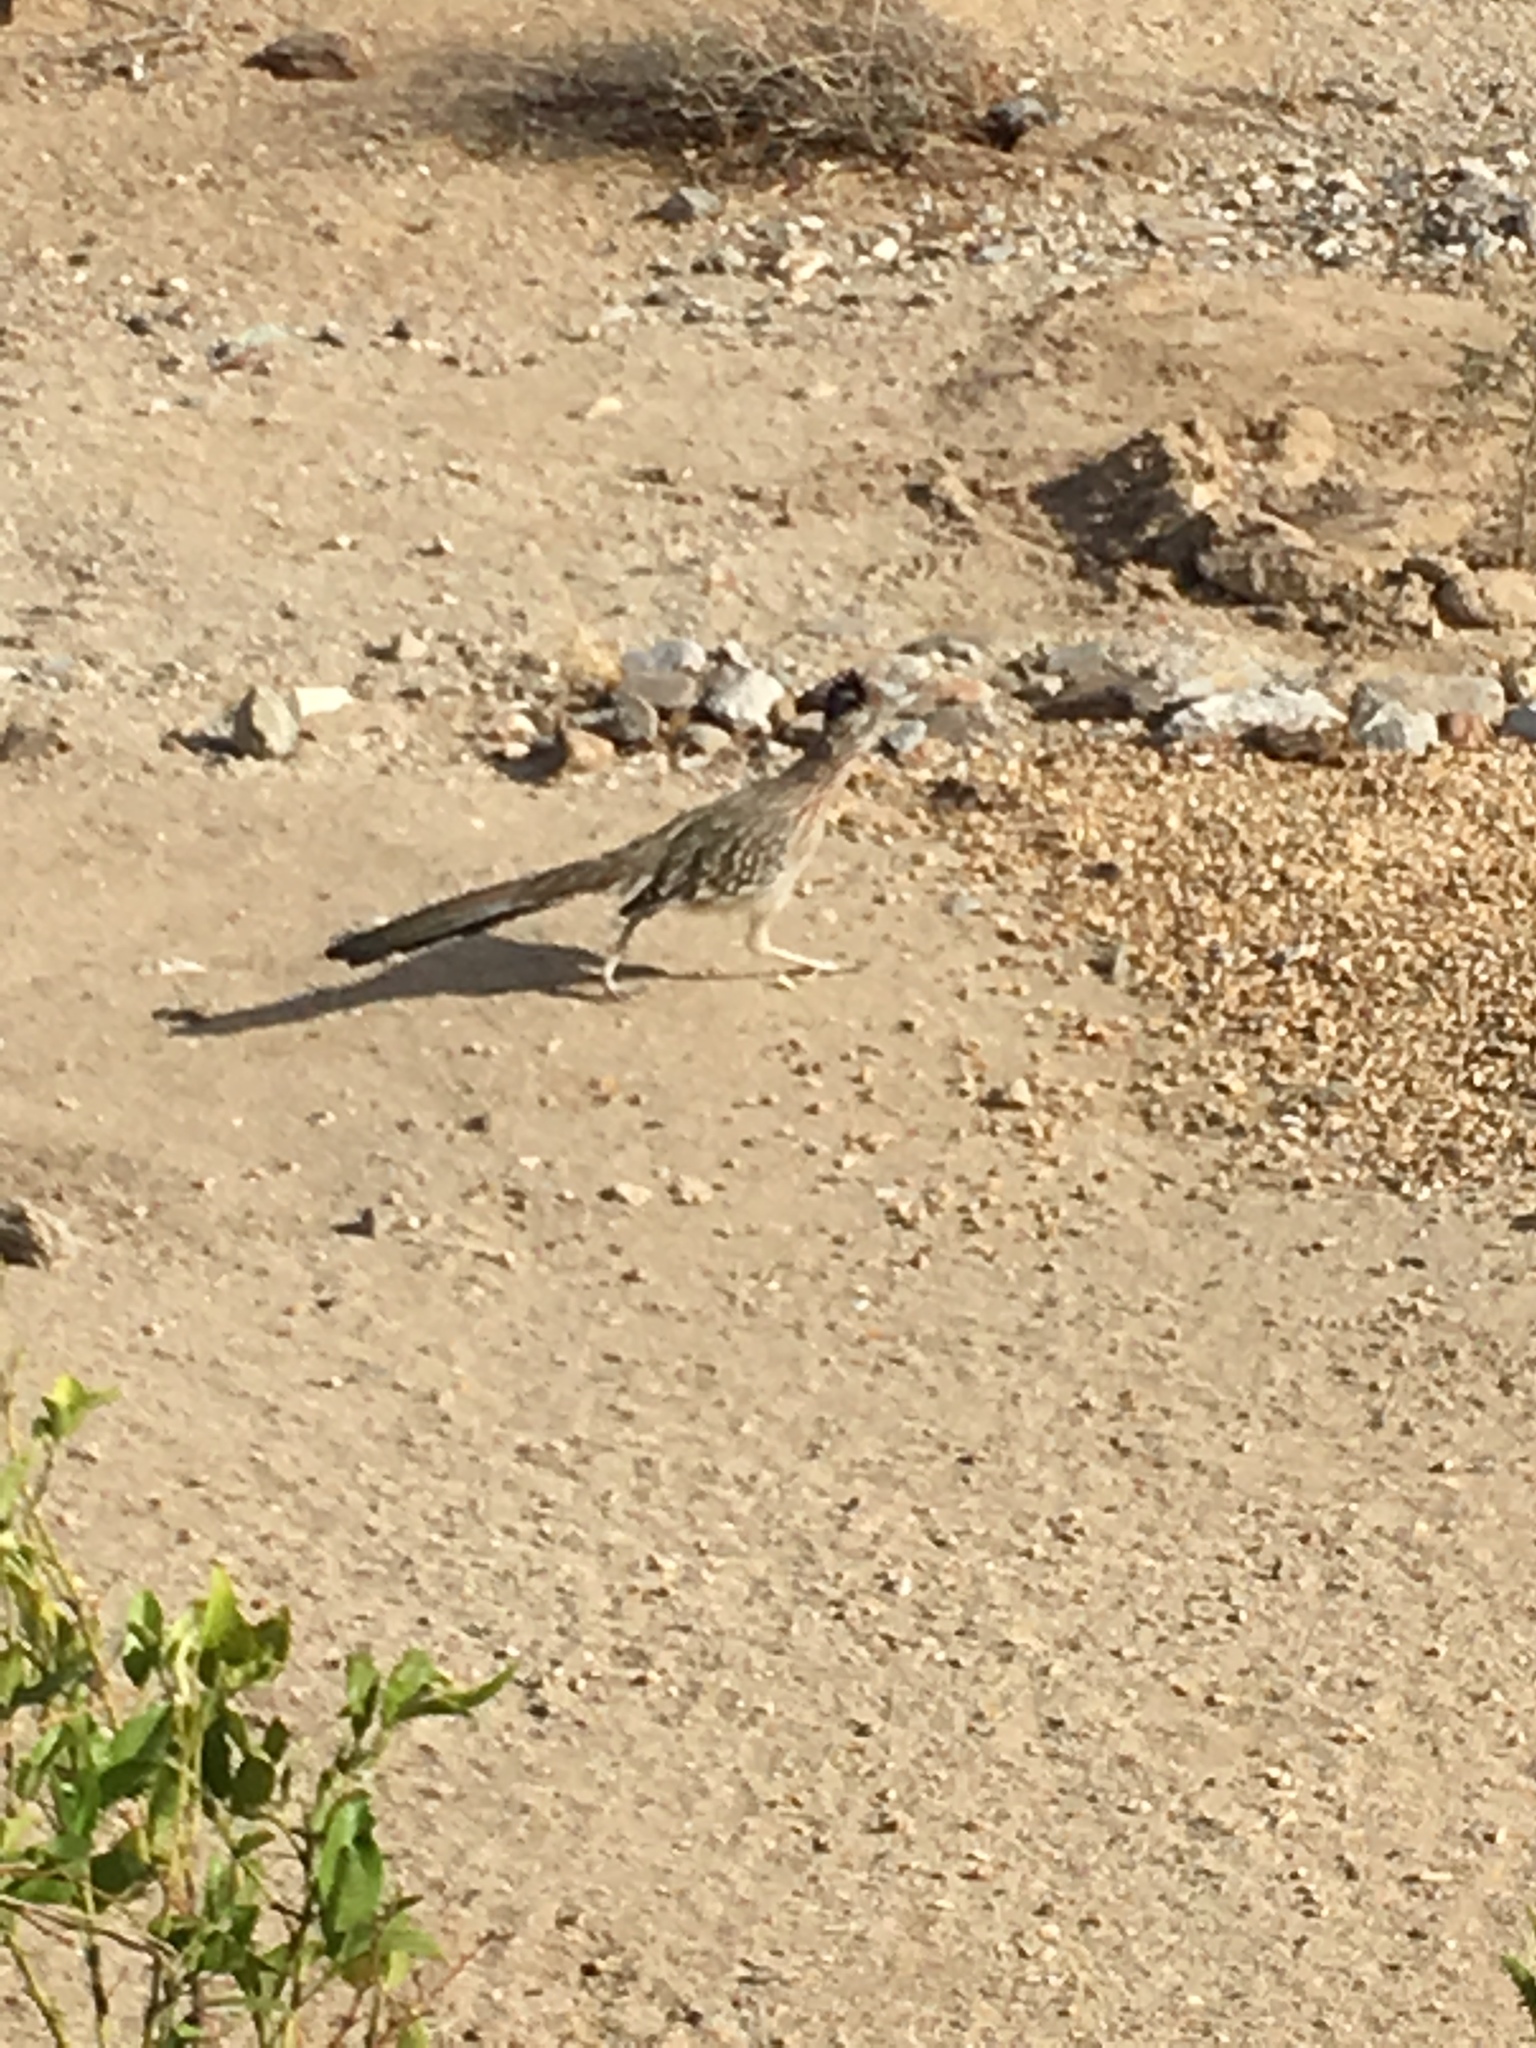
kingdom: Animalia
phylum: Chordata
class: Aves
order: Cuculiformes
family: Cuculidae
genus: Geococcyx
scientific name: Geococcyx californianus
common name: Greater roadrunner
